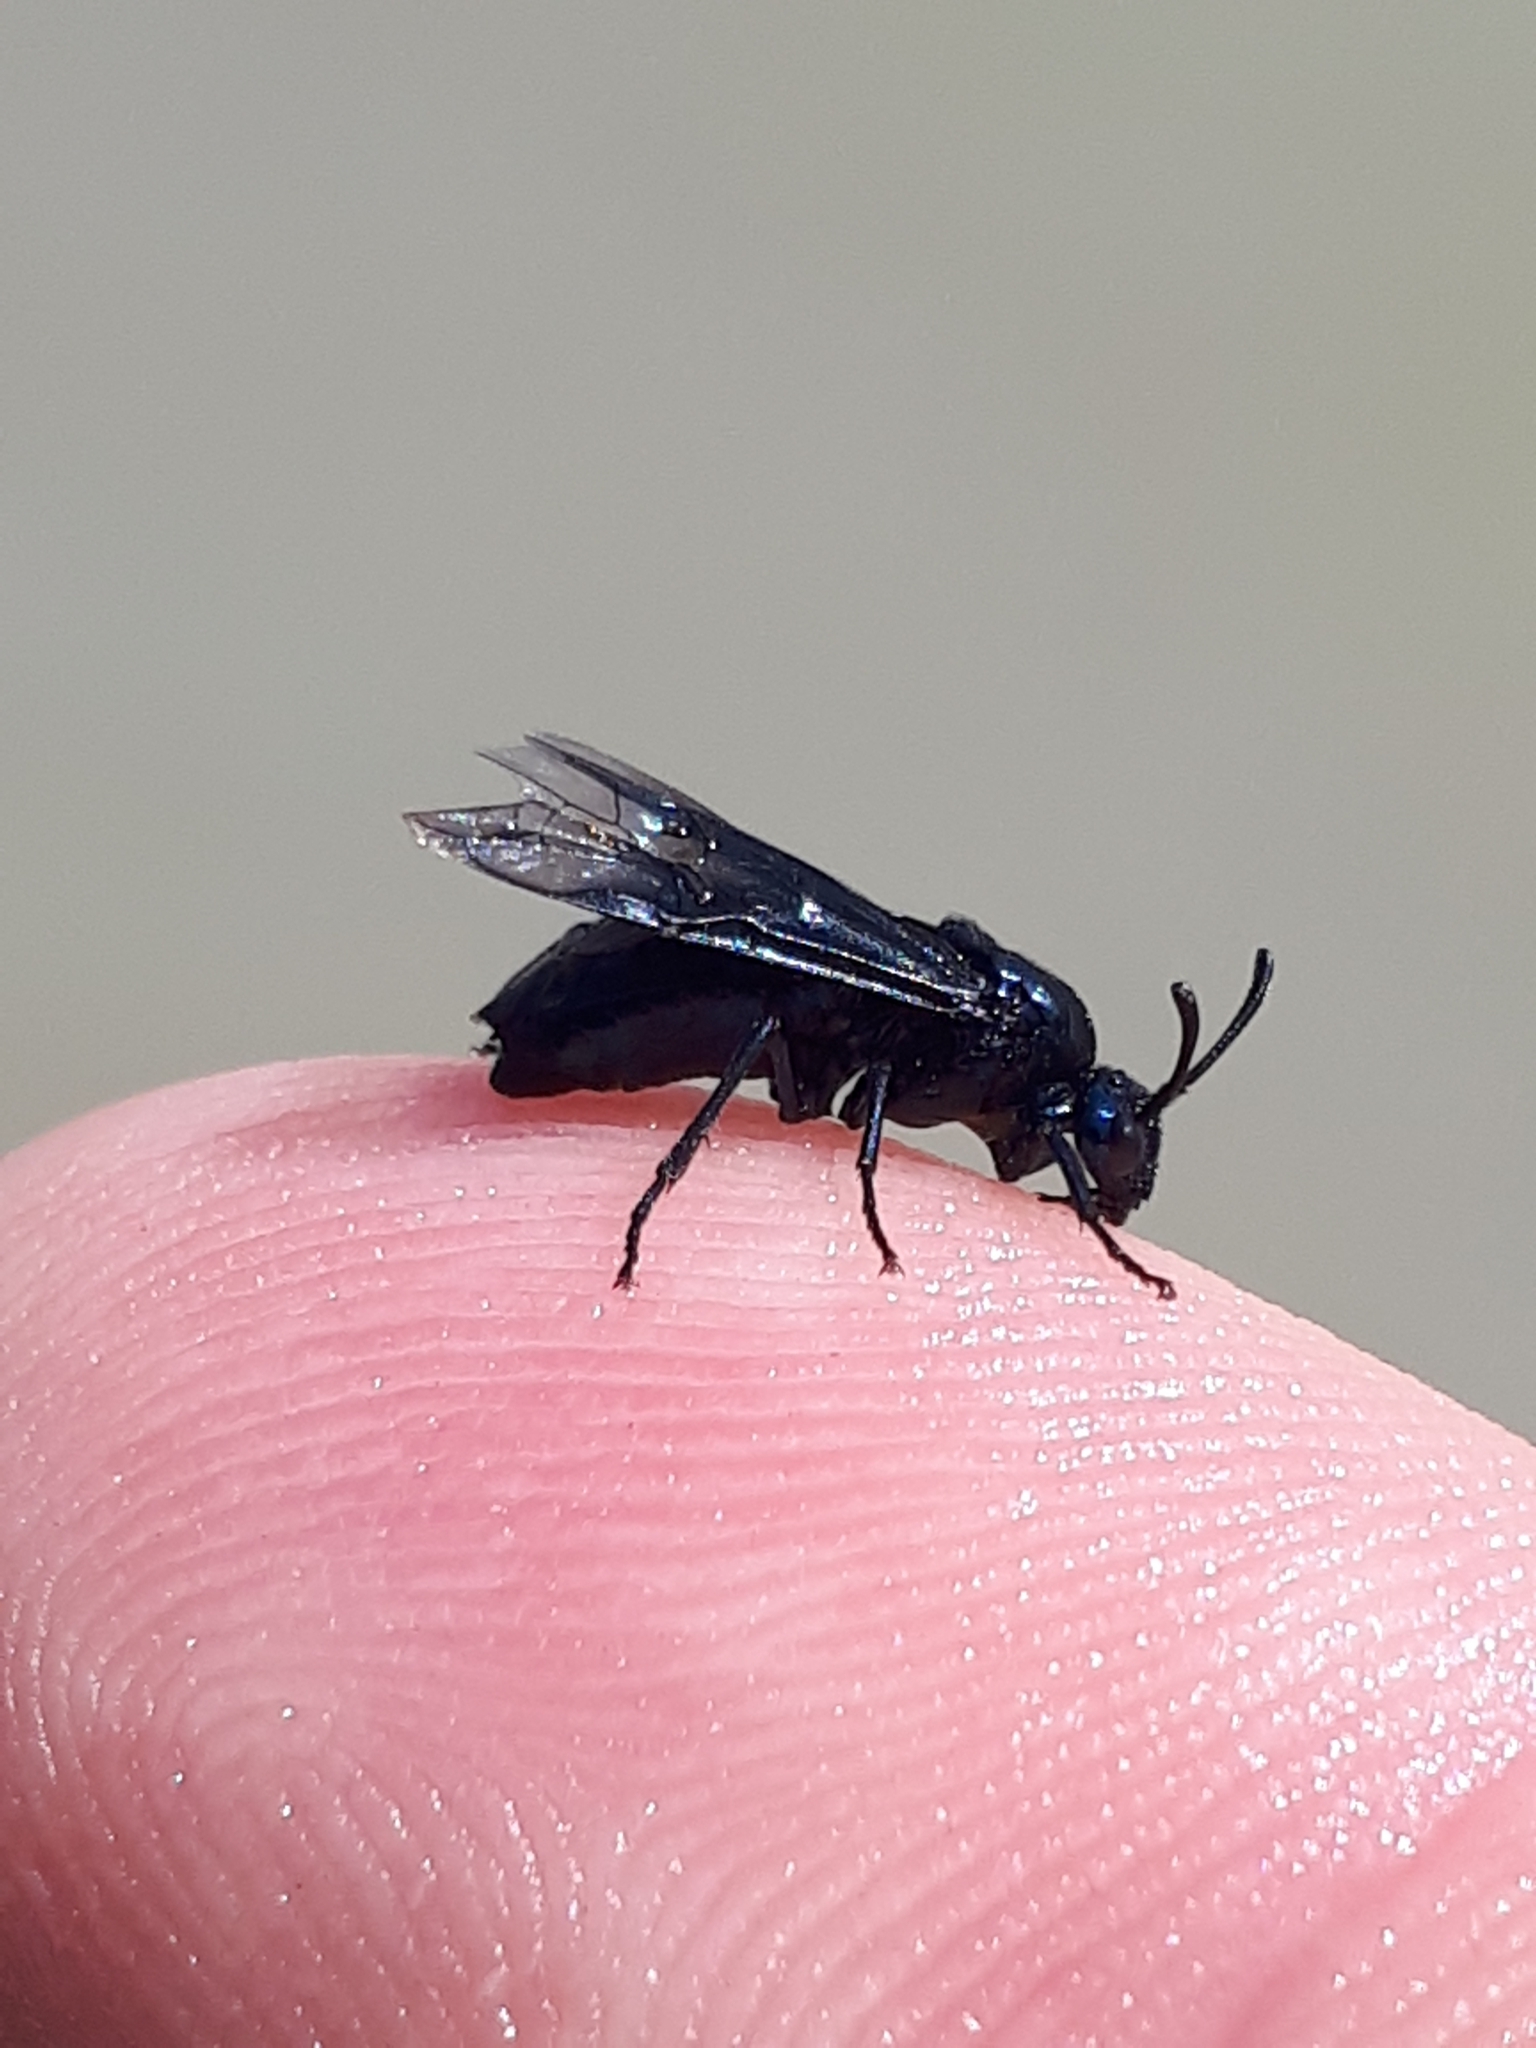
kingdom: Animalia
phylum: Arthropoda
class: Insecta
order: Hymenoptera
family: Argidae
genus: Arge
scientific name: Arge enodis
